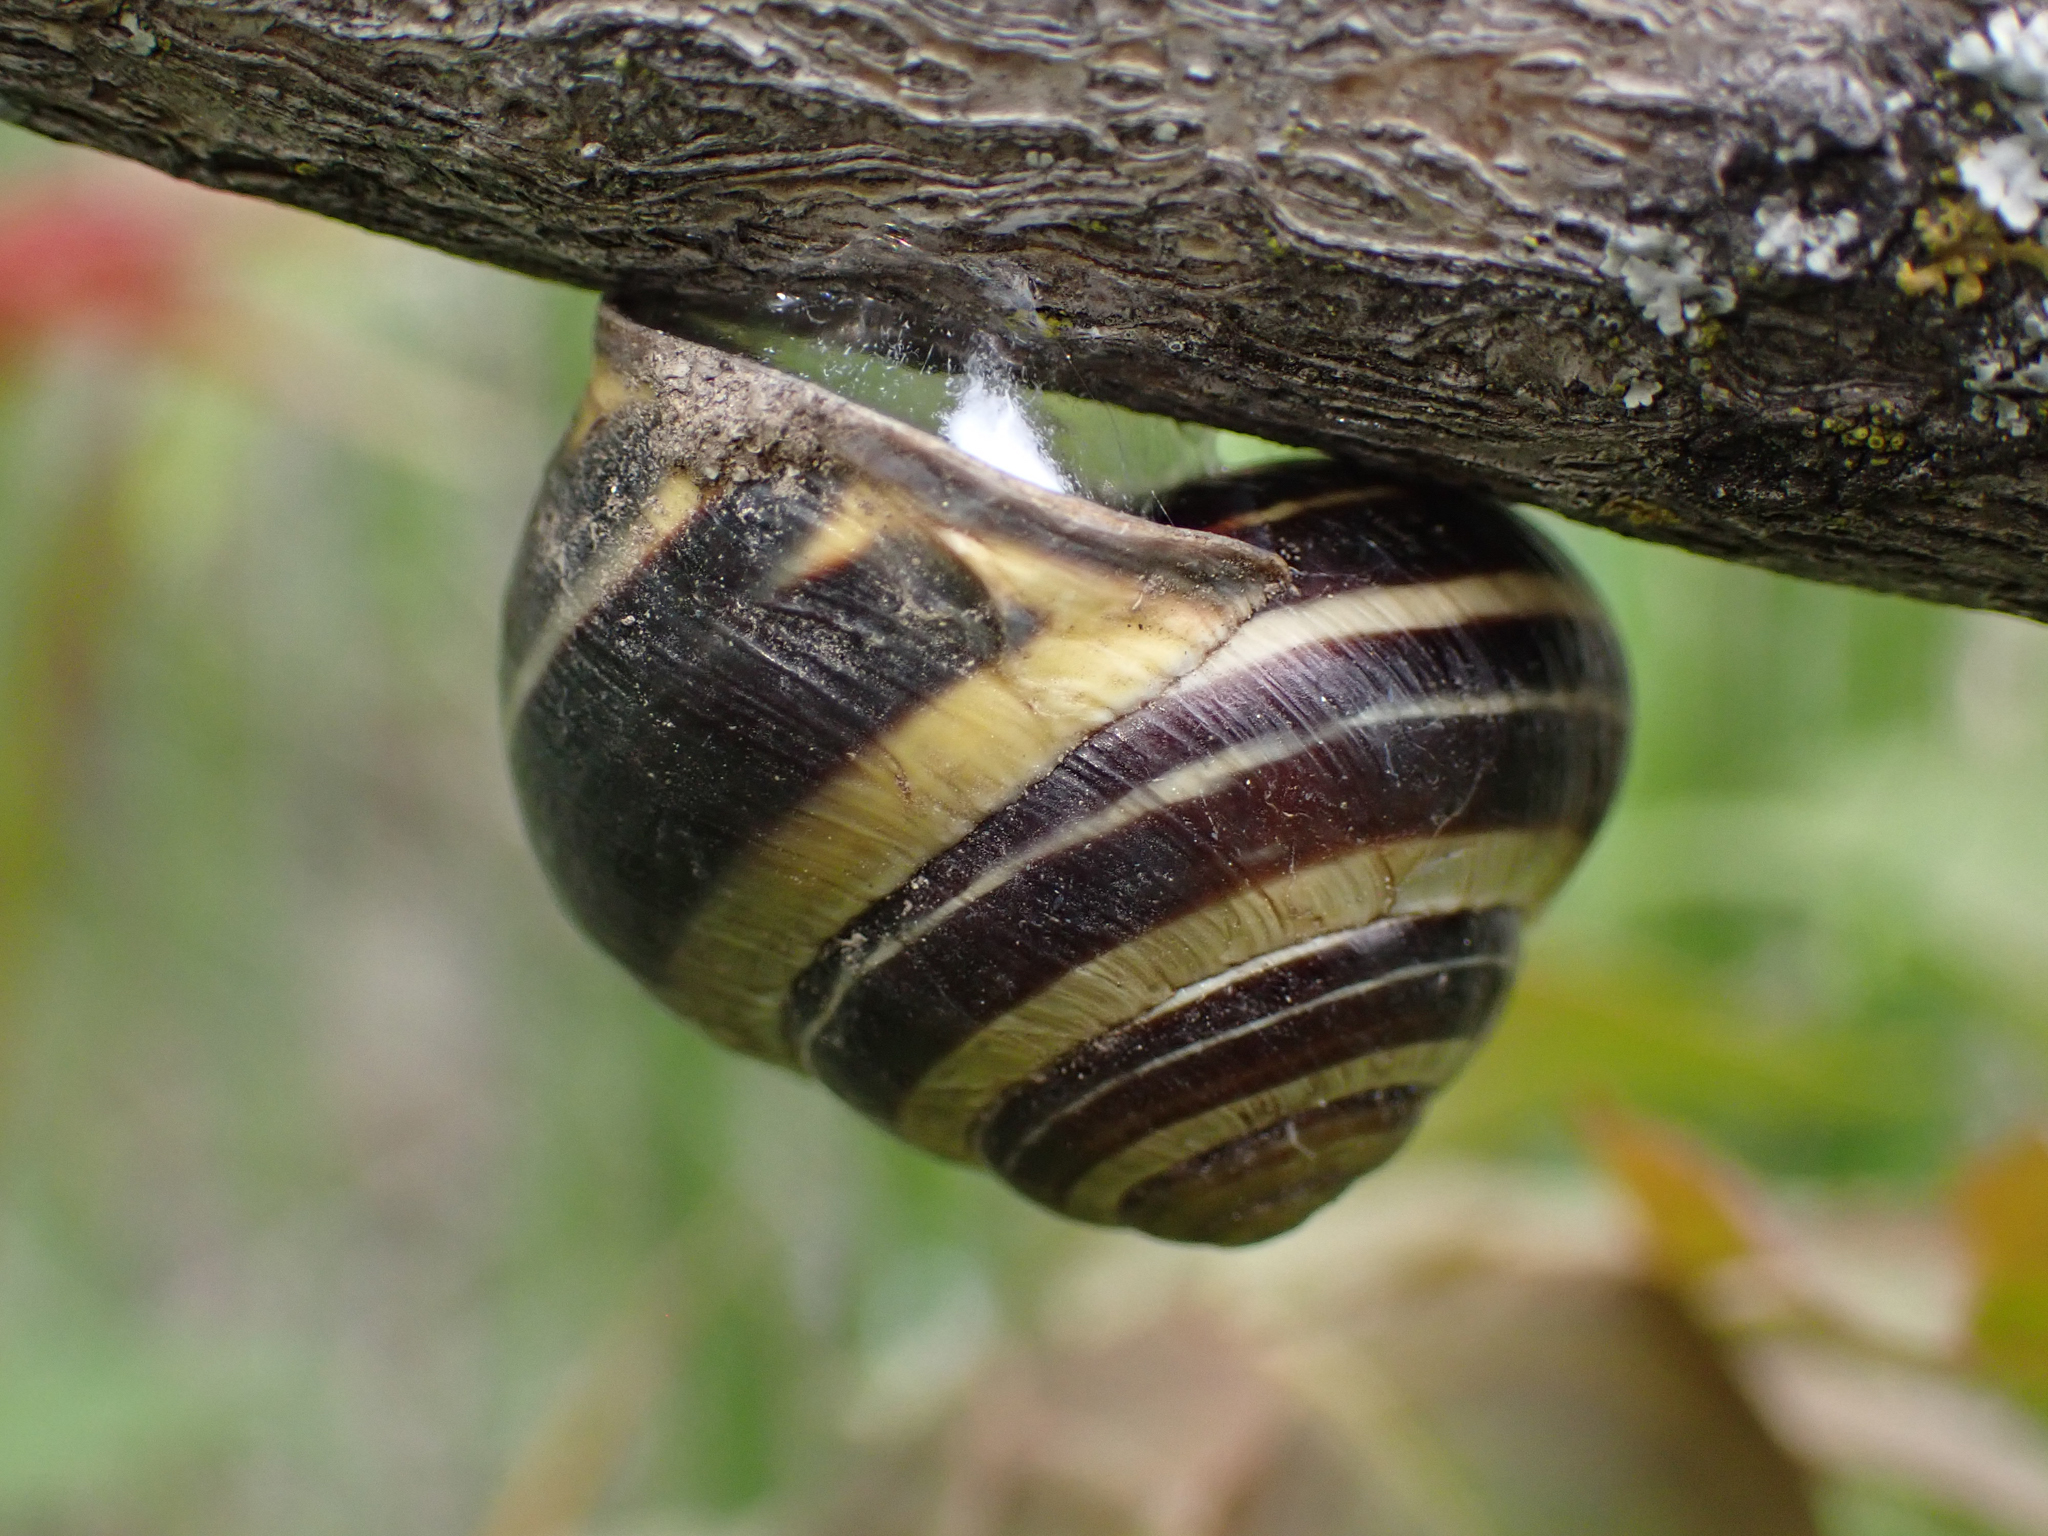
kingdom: Animalia
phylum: Mollusca
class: Gastropoda
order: Stylommatophora
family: Helicidae
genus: Cepaea
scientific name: Cepaea nemoralis
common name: Grovesnail
